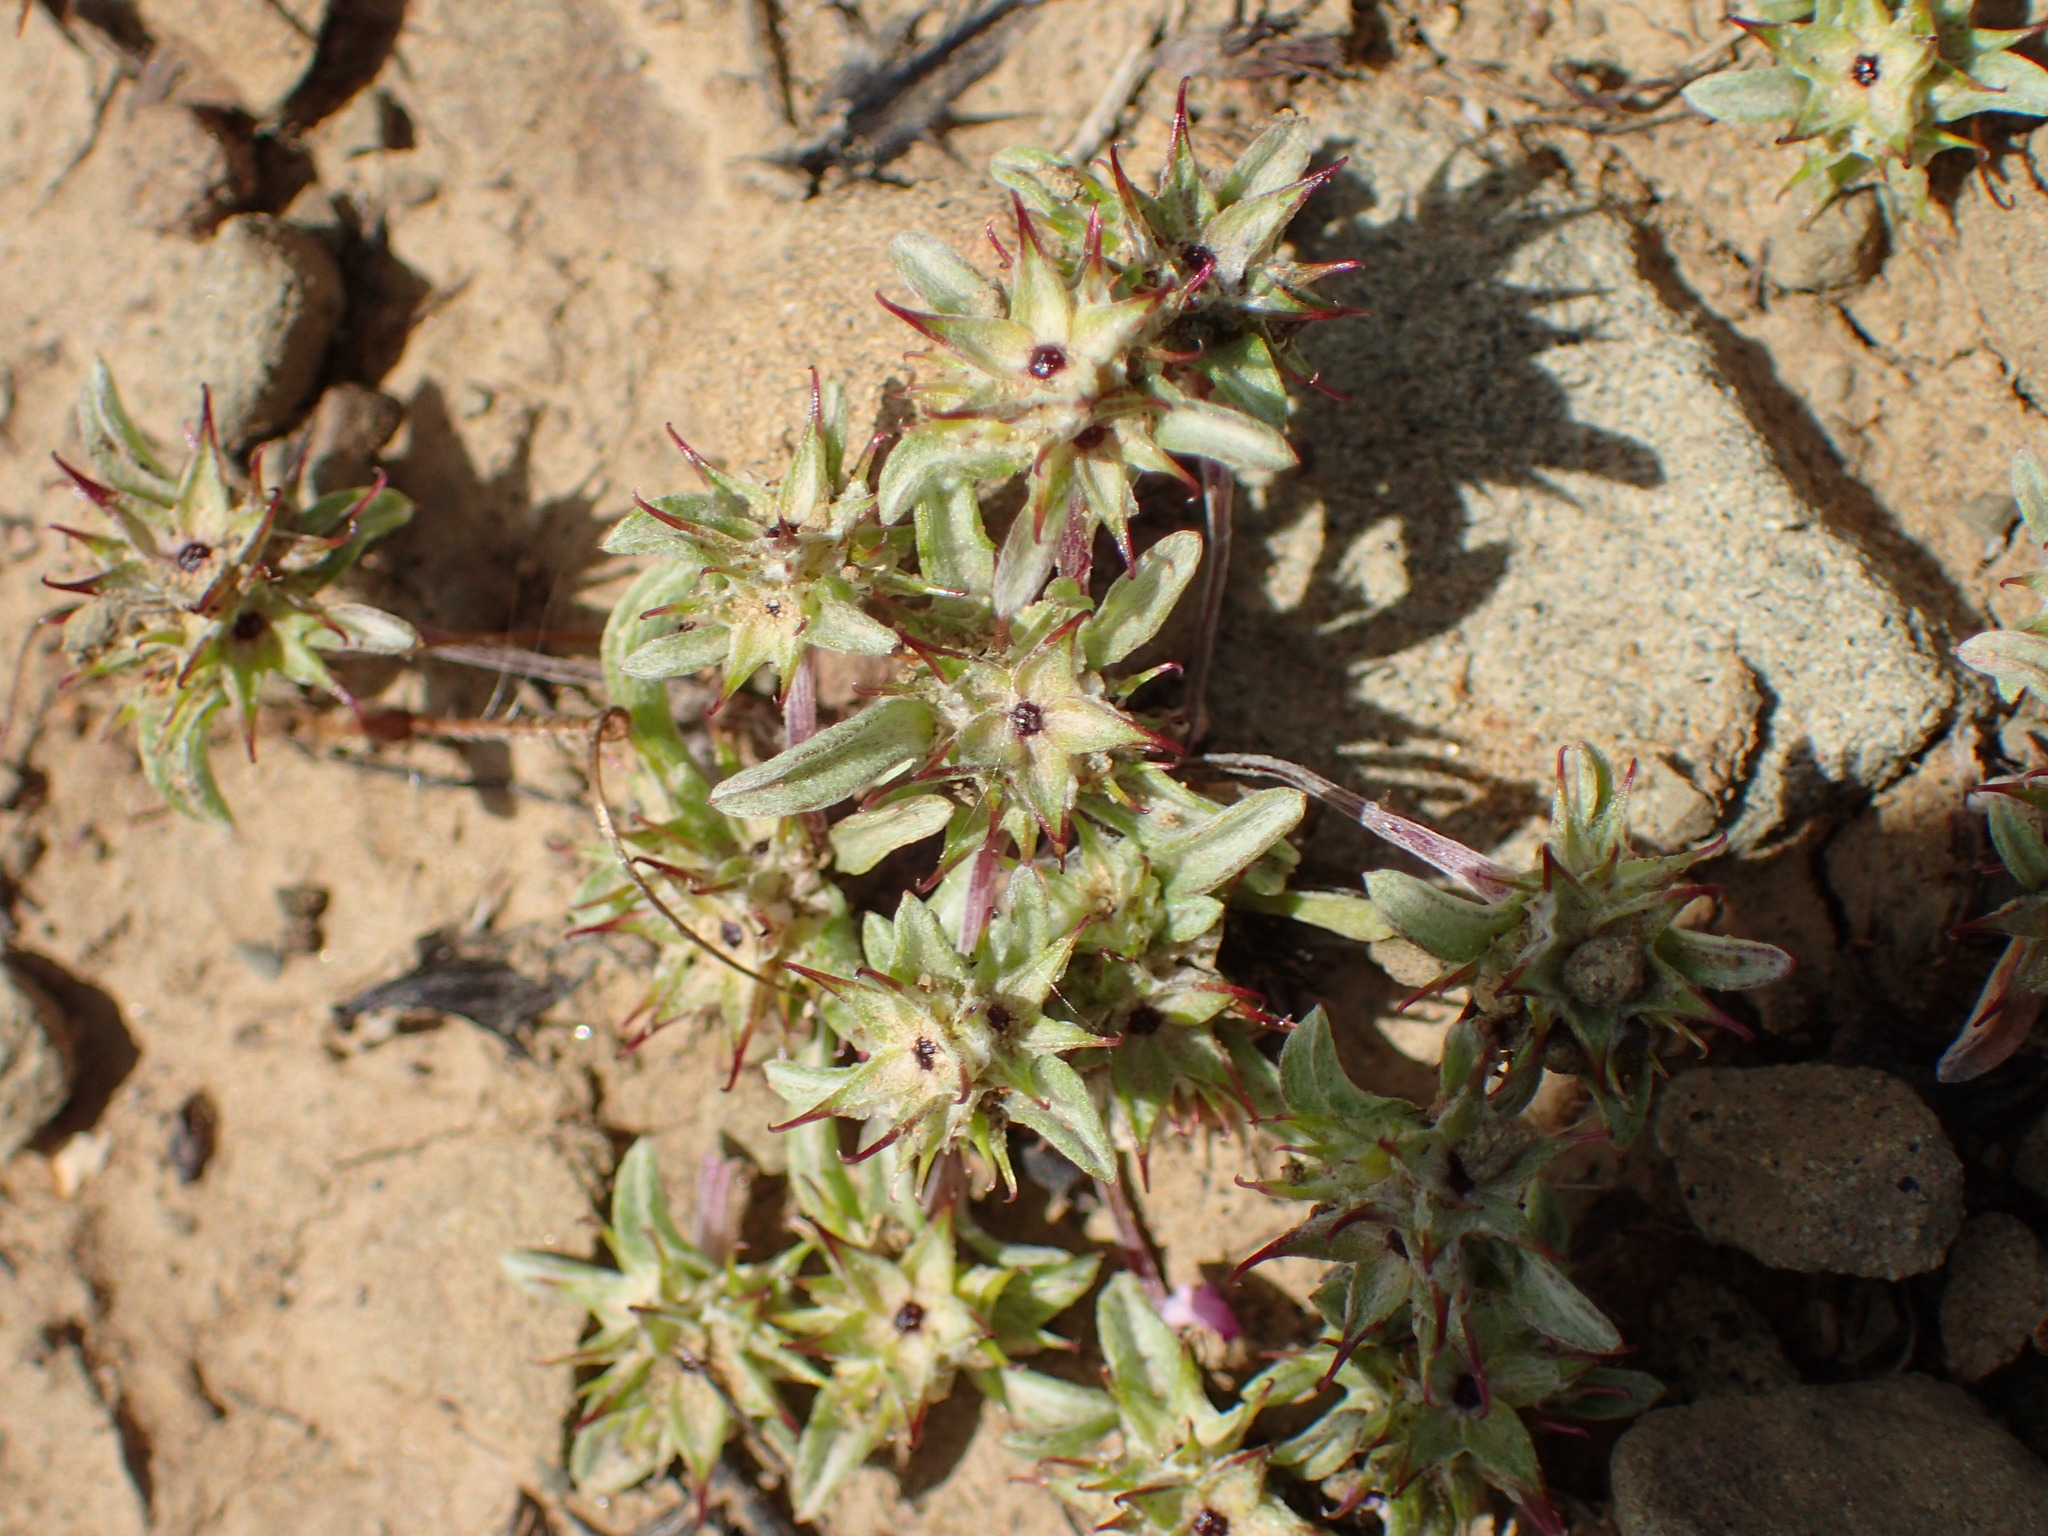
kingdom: Plantae
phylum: Tracheophyta
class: Magnoliopsida
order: Asterales
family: Asteraceae
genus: Ancistrocarphus
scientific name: Ancistrocarphus filagineus
